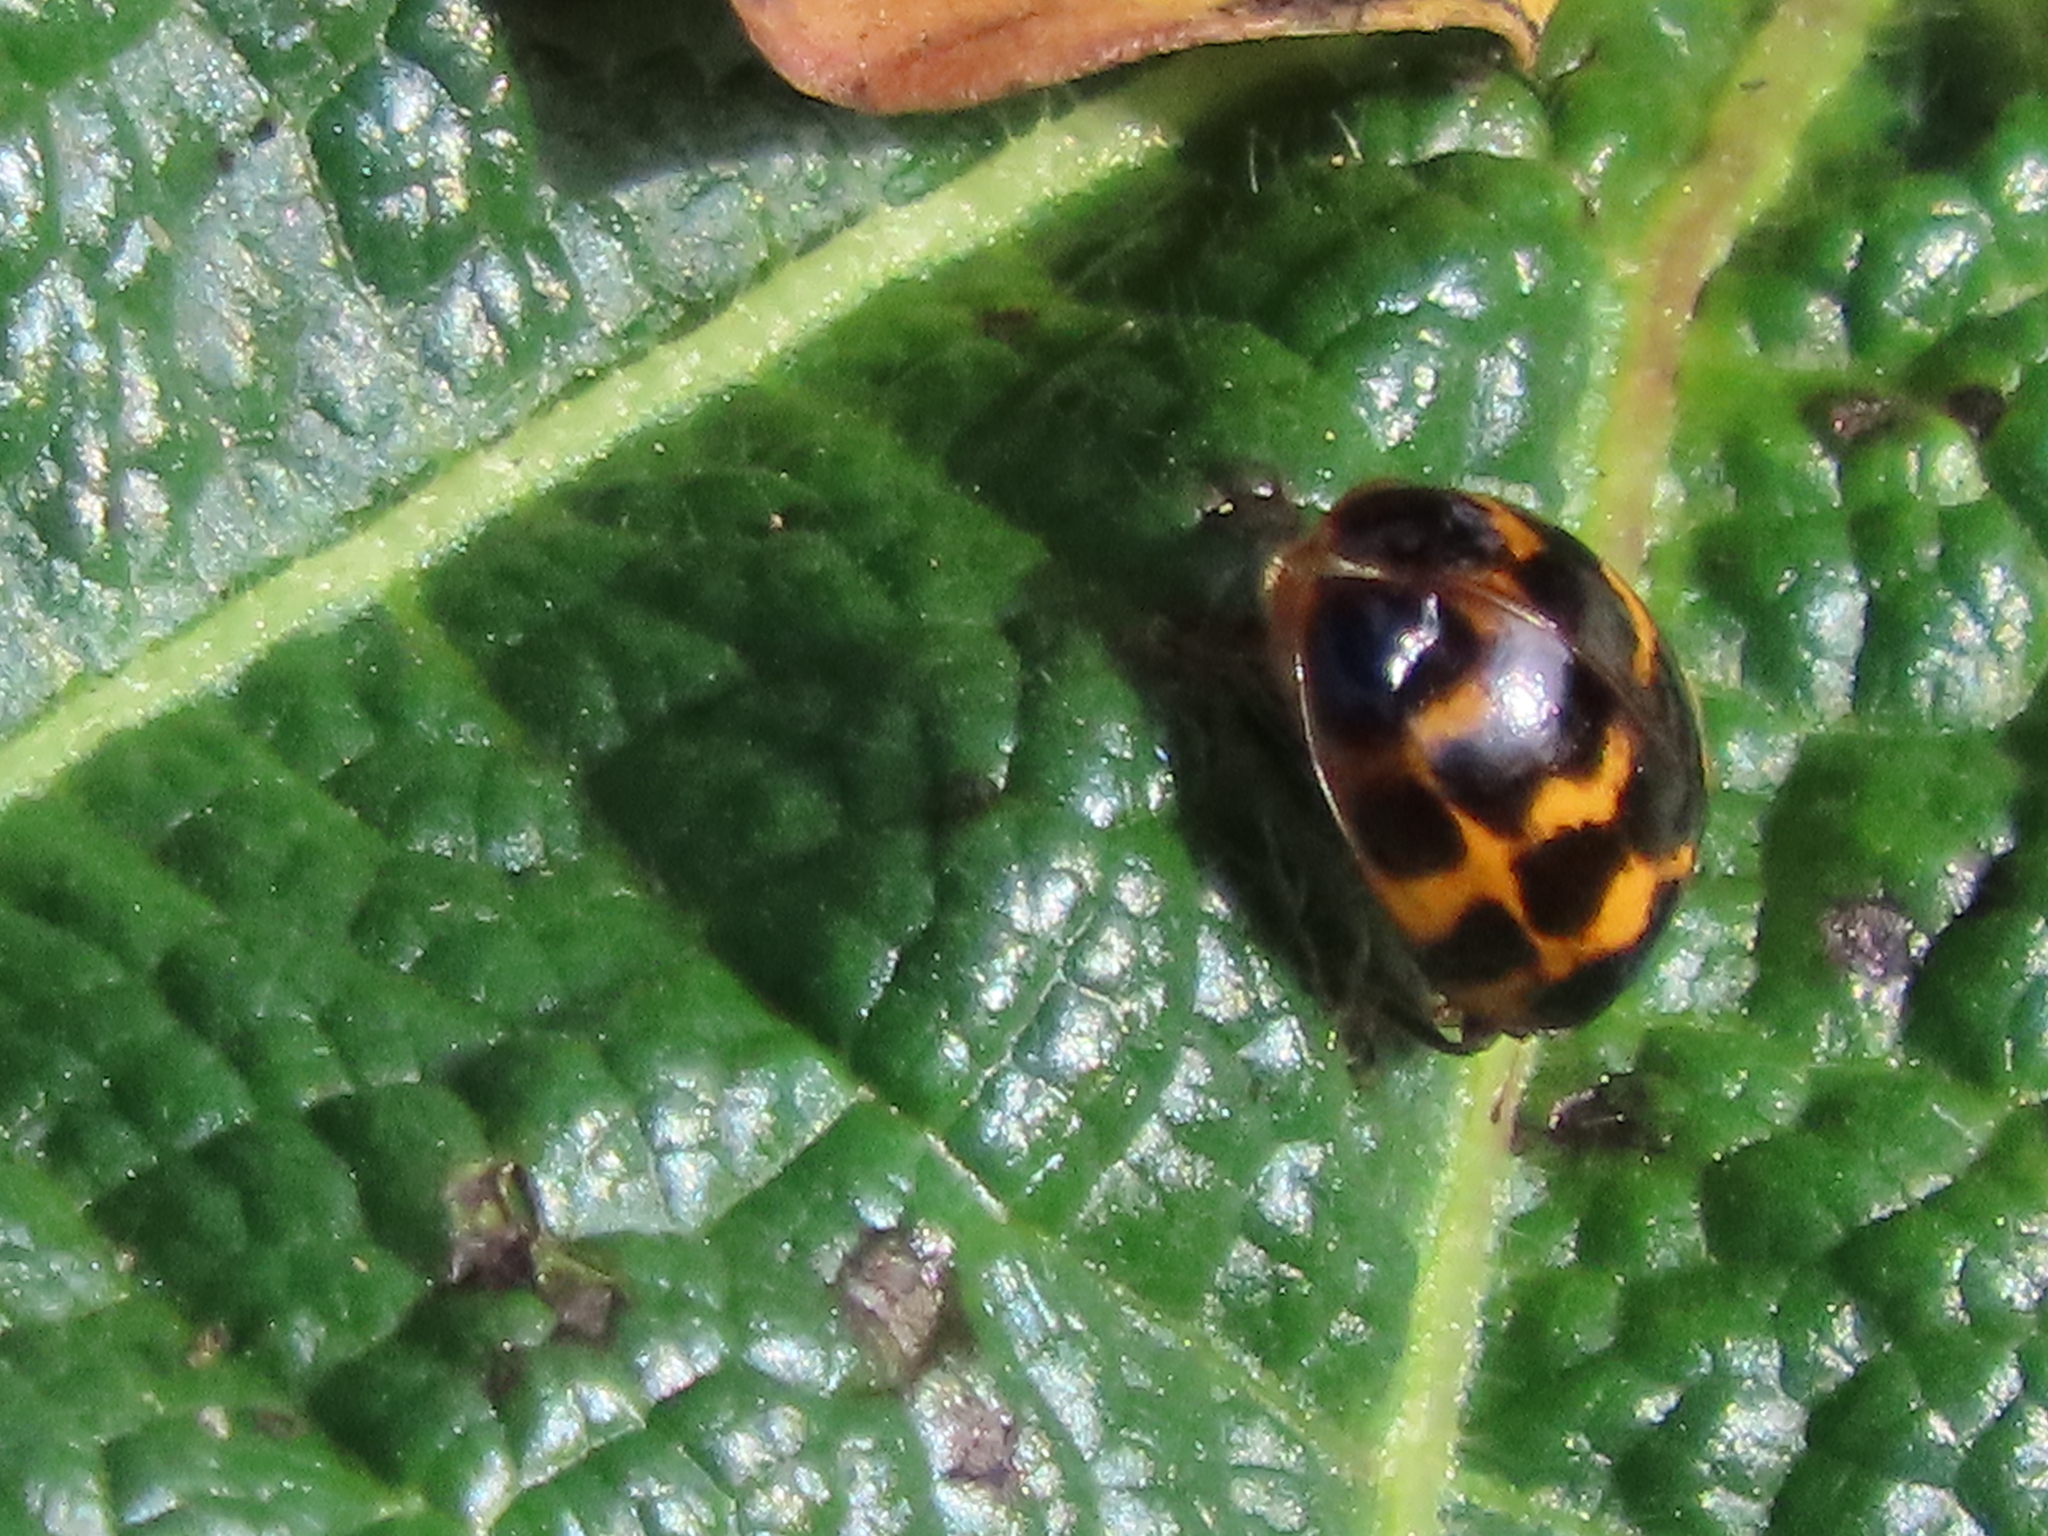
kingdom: Animalia
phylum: Arthropoda
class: Insecta
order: Coleoptera
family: Coccinellidae
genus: Harmonia
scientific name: Harmonia axyridis
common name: Harlequin ladybird
